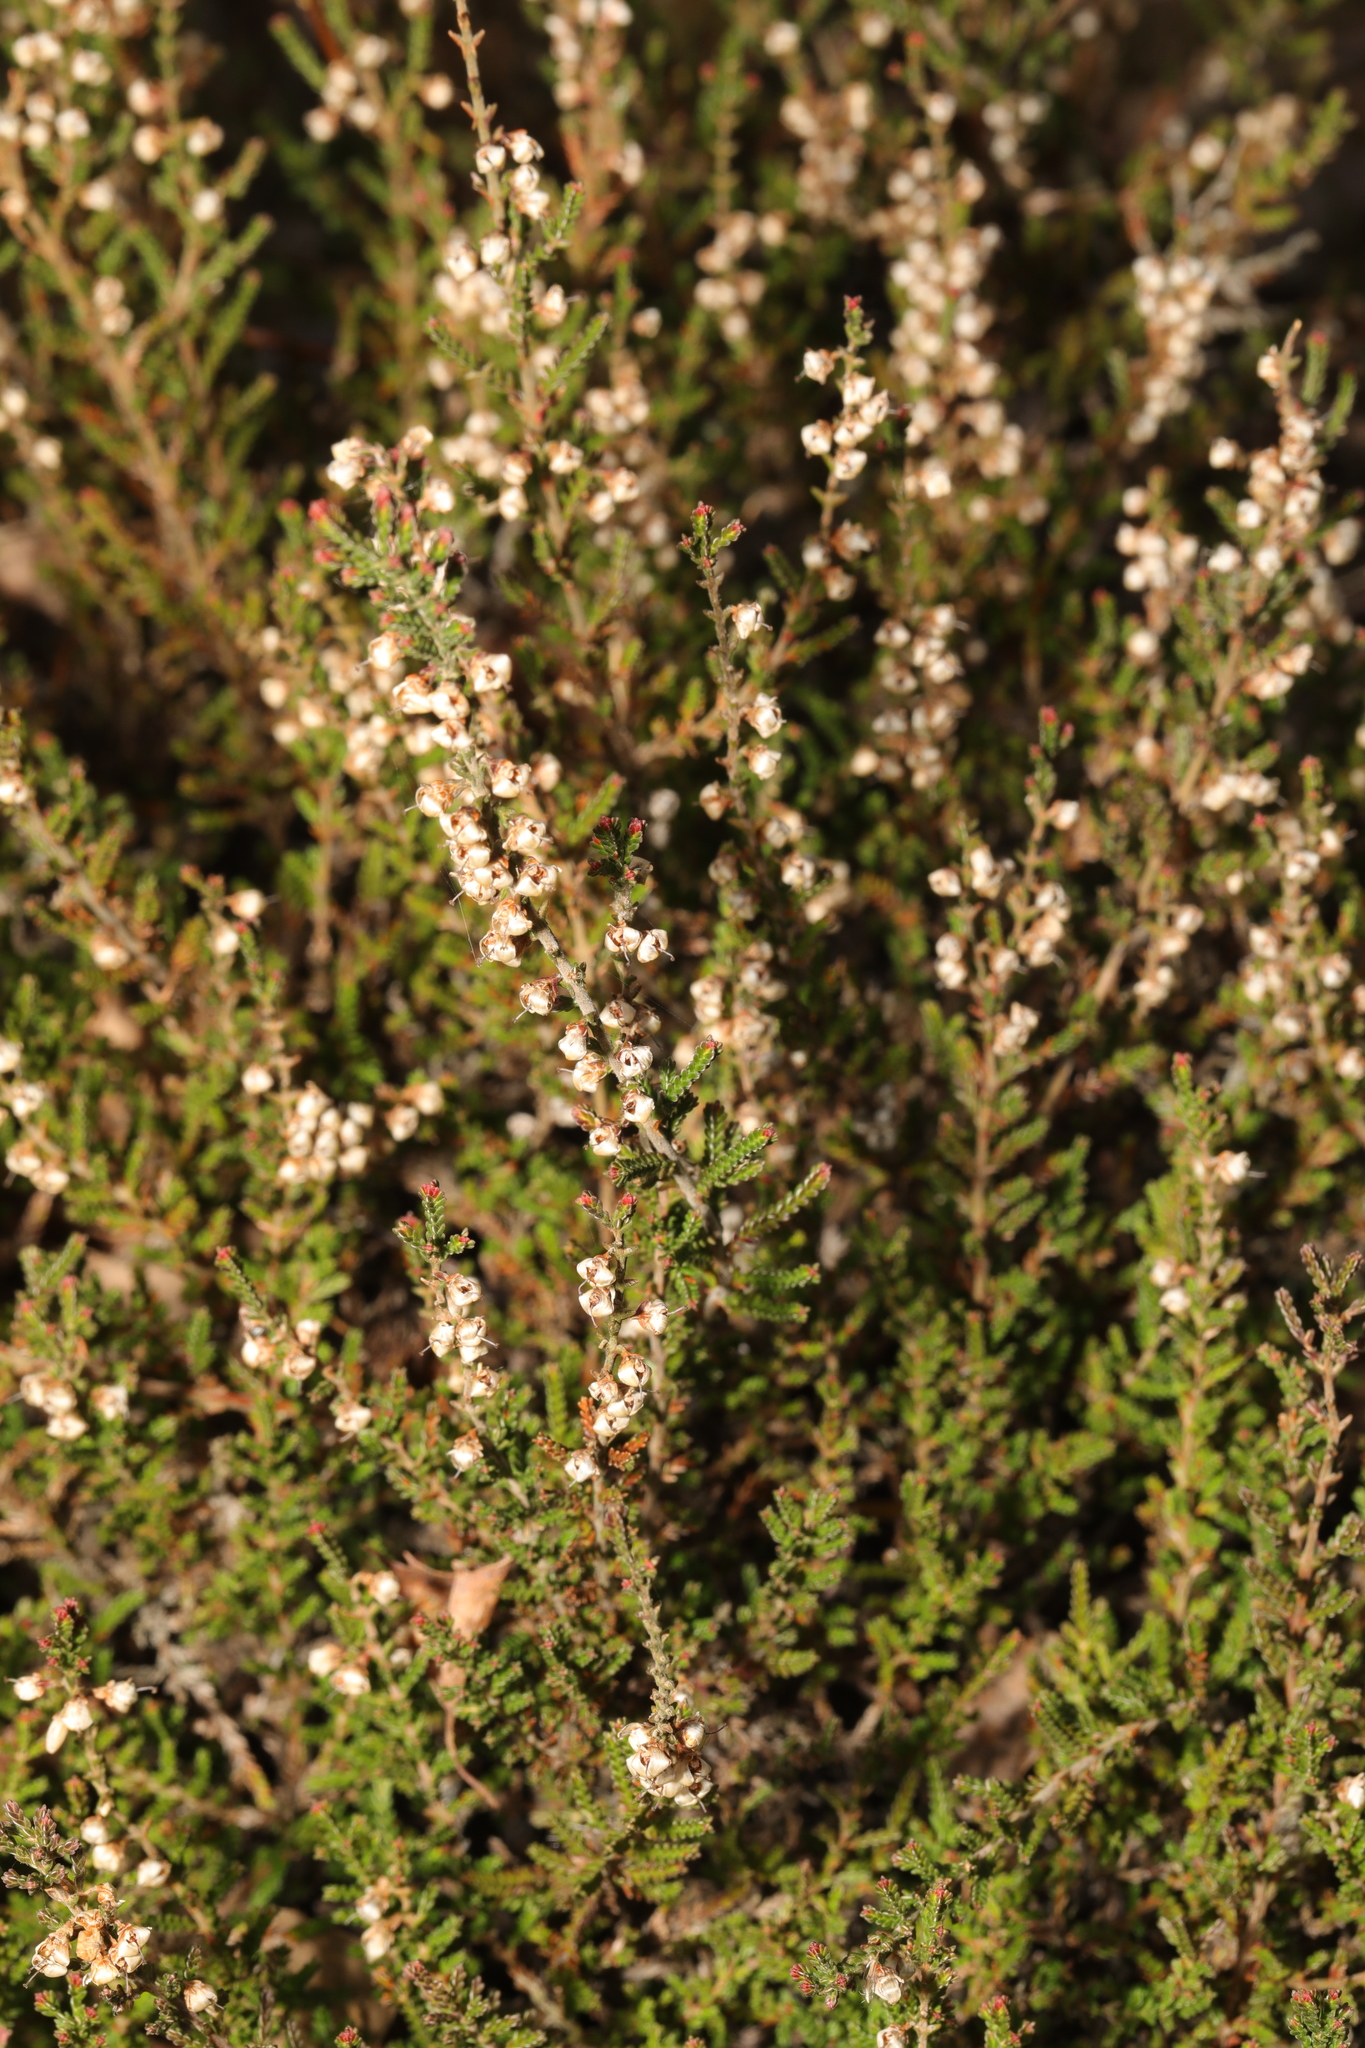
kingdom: Plantae
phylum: Tracheophyta
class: Magnoliopsida
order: Ericales
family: Ericaceae
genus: Calluna
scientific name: Calluna vulgaris
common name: Heather
